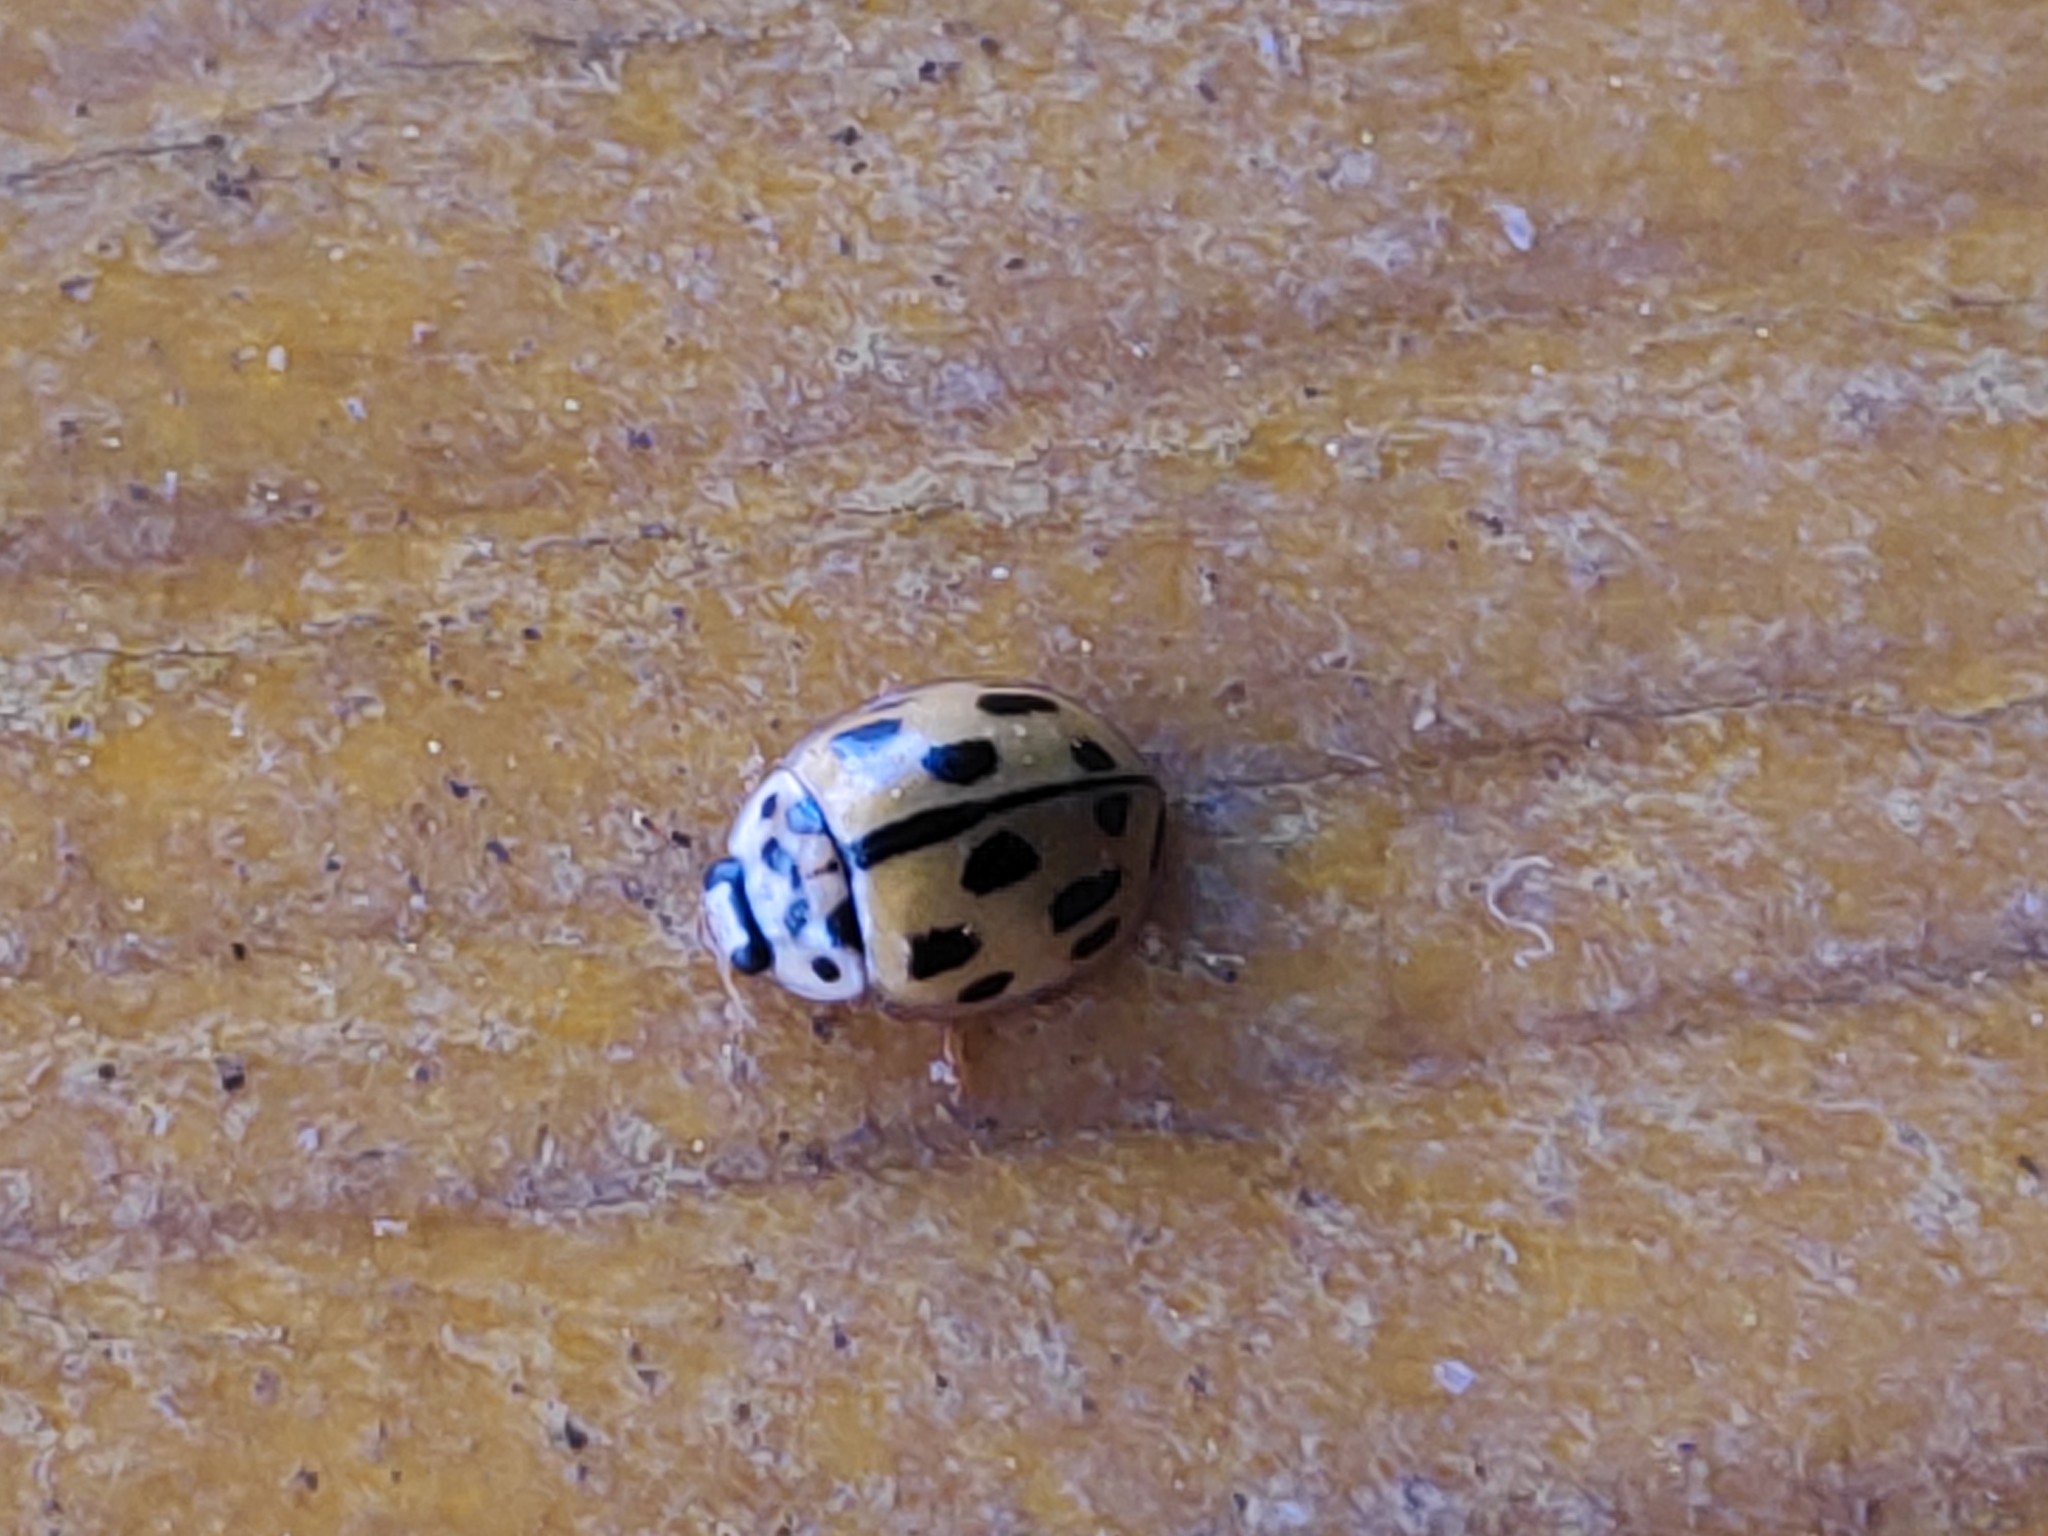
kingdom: Animalia
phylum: Arthropoda
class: Insecta
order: Coleoptera
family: Coccinellidae
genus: Propylaea
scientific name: Propylaea quatuordecimpunctata
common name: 14-spotted ladybird beetle
